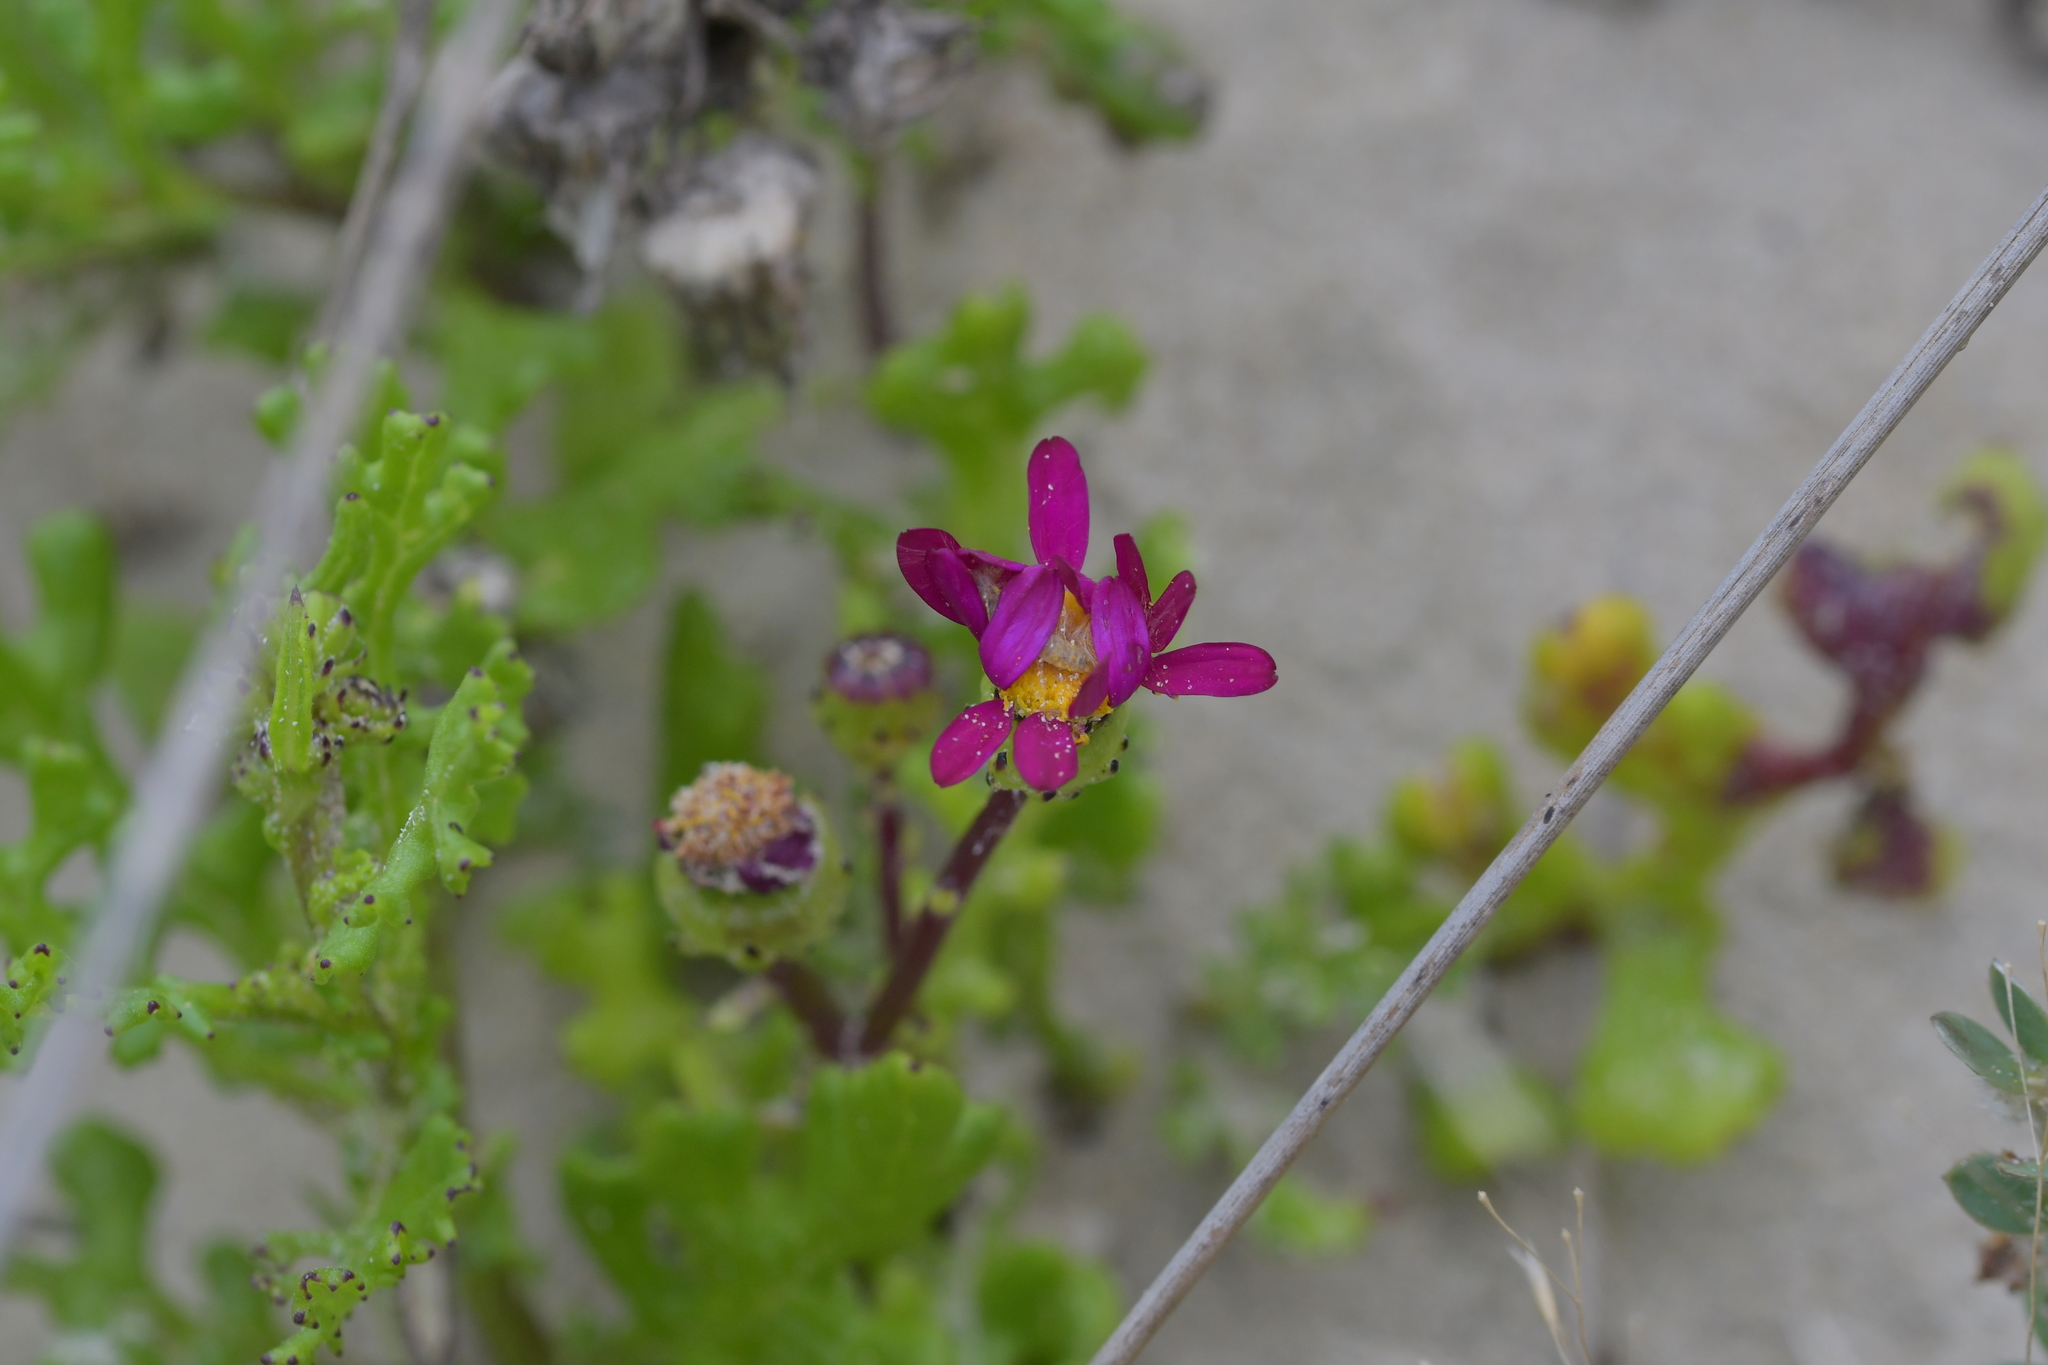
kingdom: Plantae
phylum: Tracheophyta
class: Magnoliopsida
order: Asterales
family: Asteraceae
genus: Senecio
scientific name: Senecio elegans
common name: Purple groundsel
